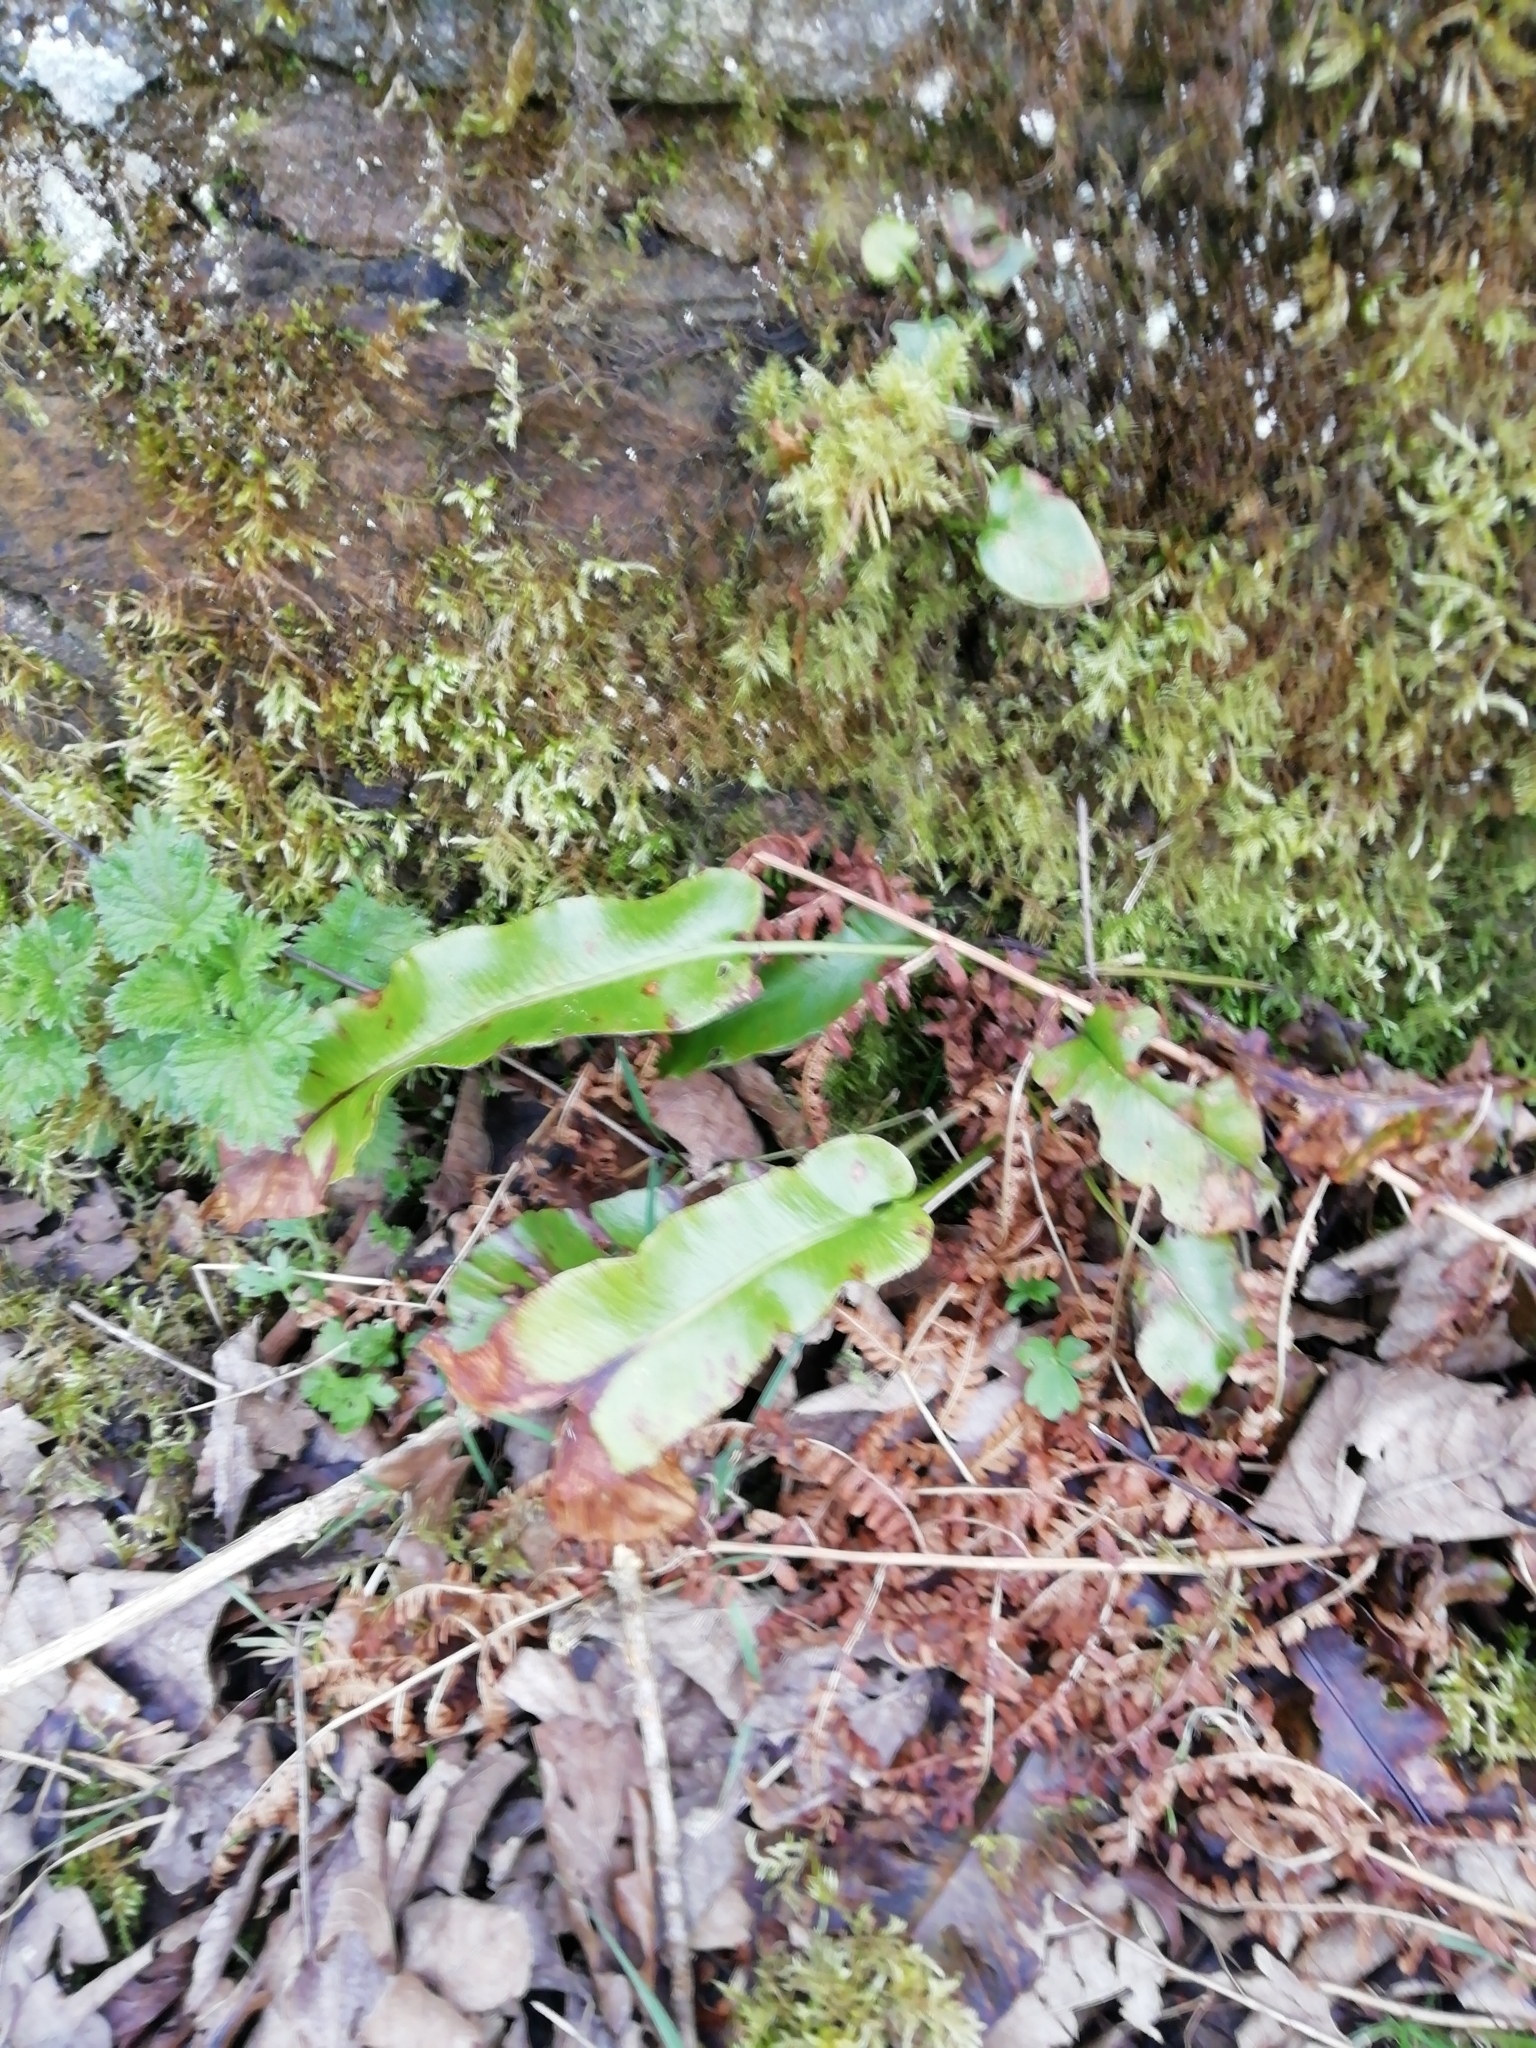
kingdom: Plantae
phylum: Tracheophyta
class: Polypodiopsida
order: Polypodiales
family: Aspleniaceae
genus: Asplenium
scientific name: Asplenium scolopendrium
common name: Hart's-tongue fern
